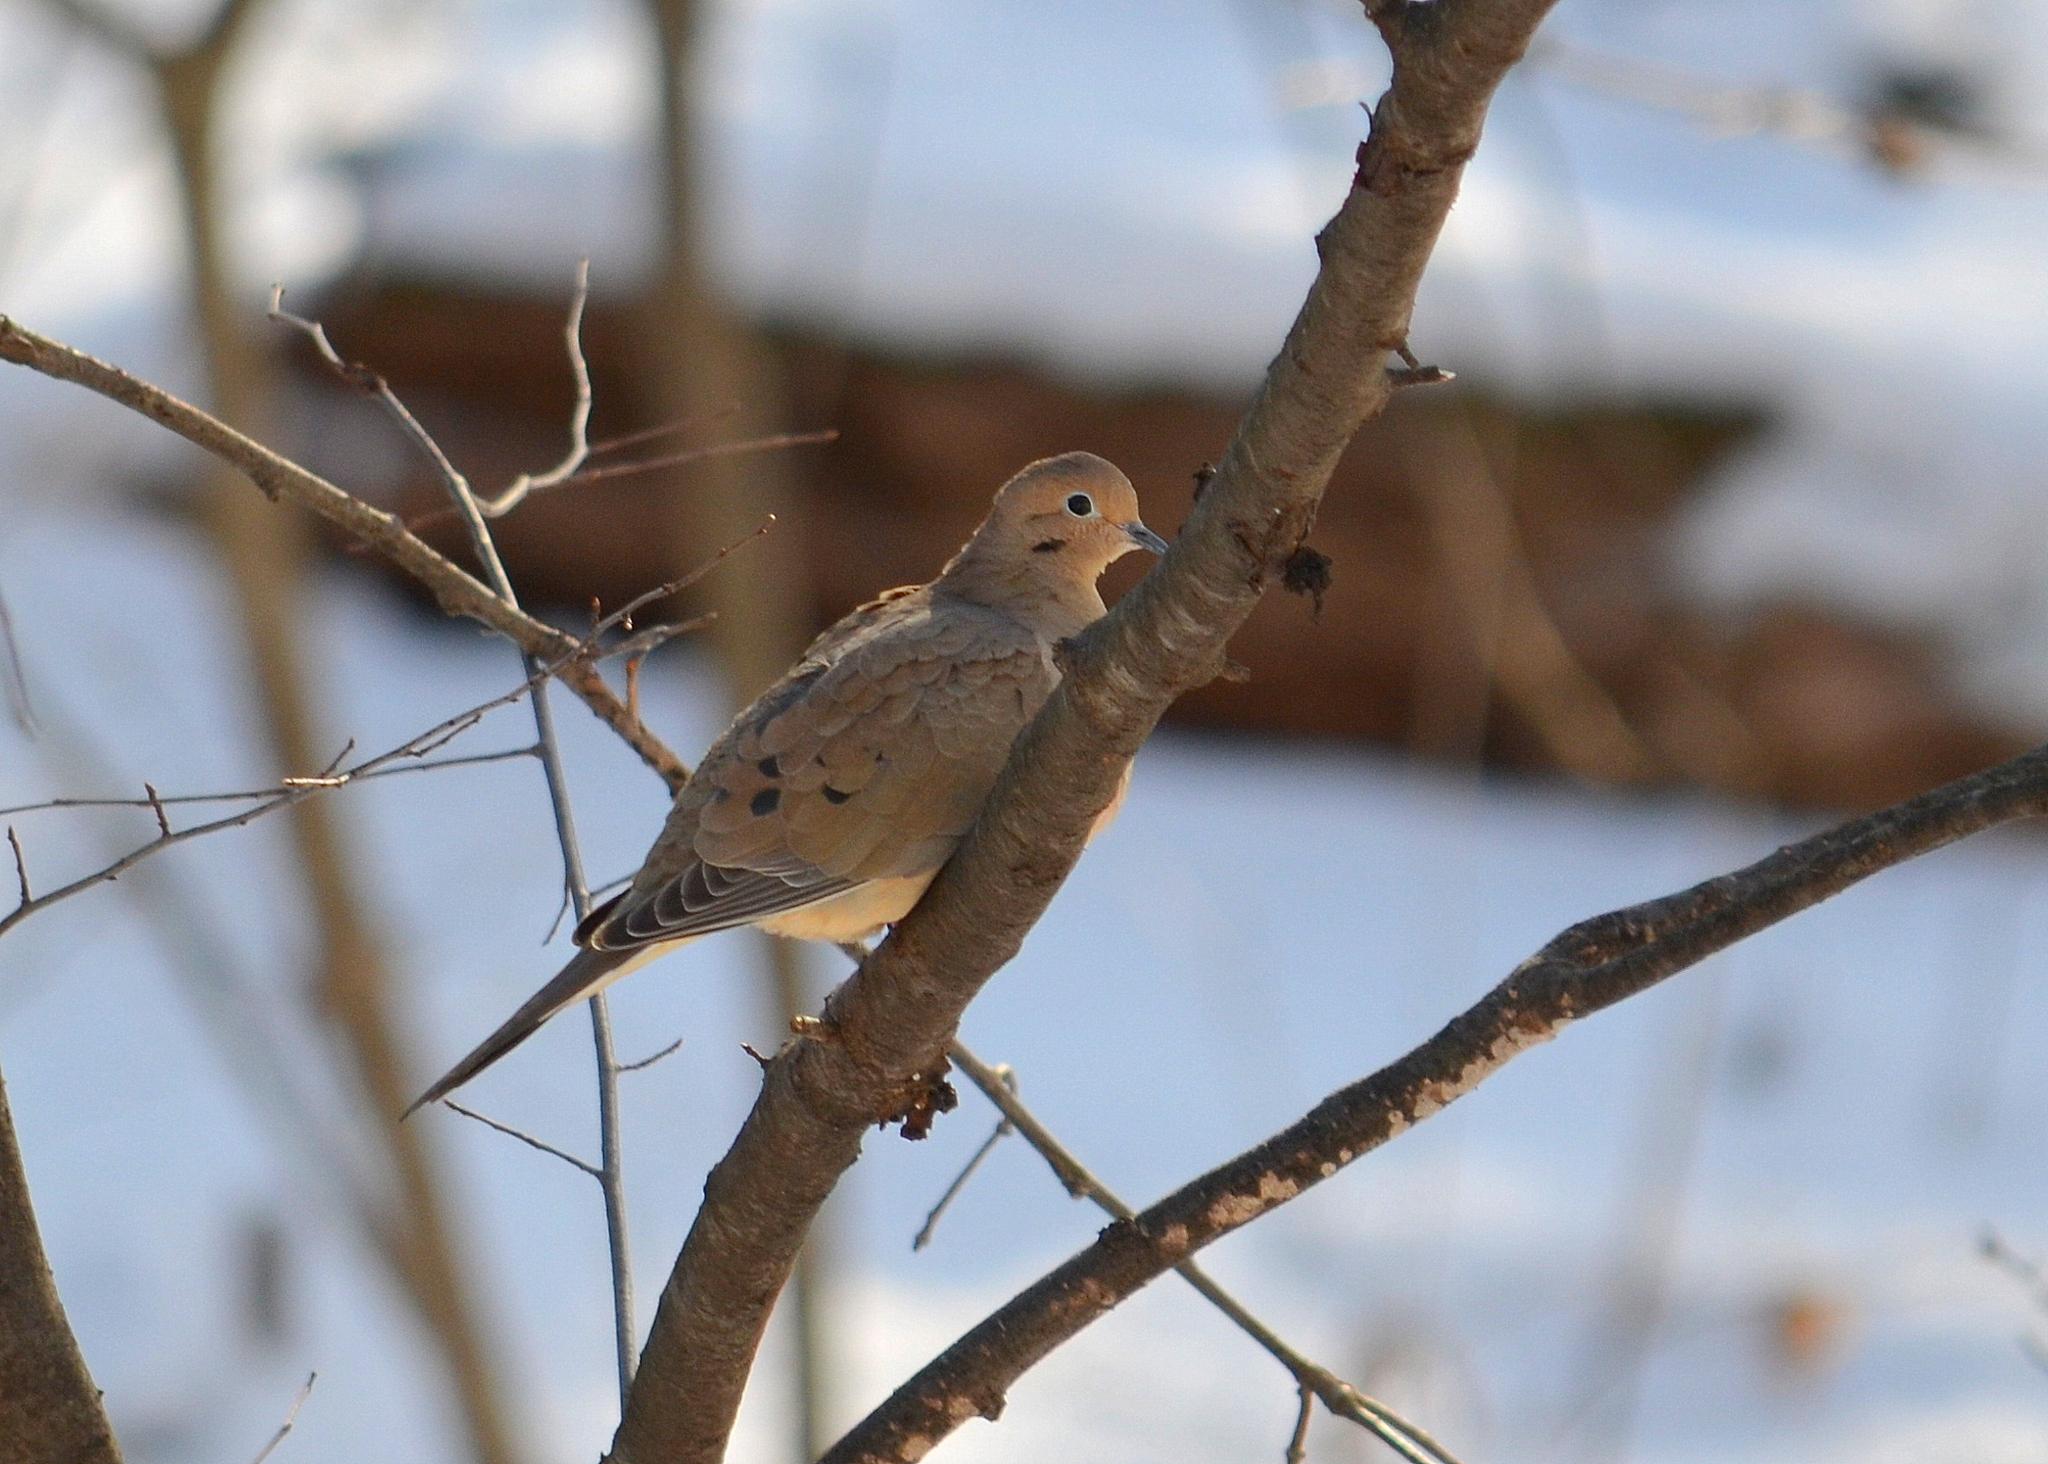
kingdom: Animalia
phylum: Chordata
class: Aves
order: Columbiformes
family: Columbidae
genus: Zenaida
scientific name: Zenaida macroura
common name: Mourning dove
